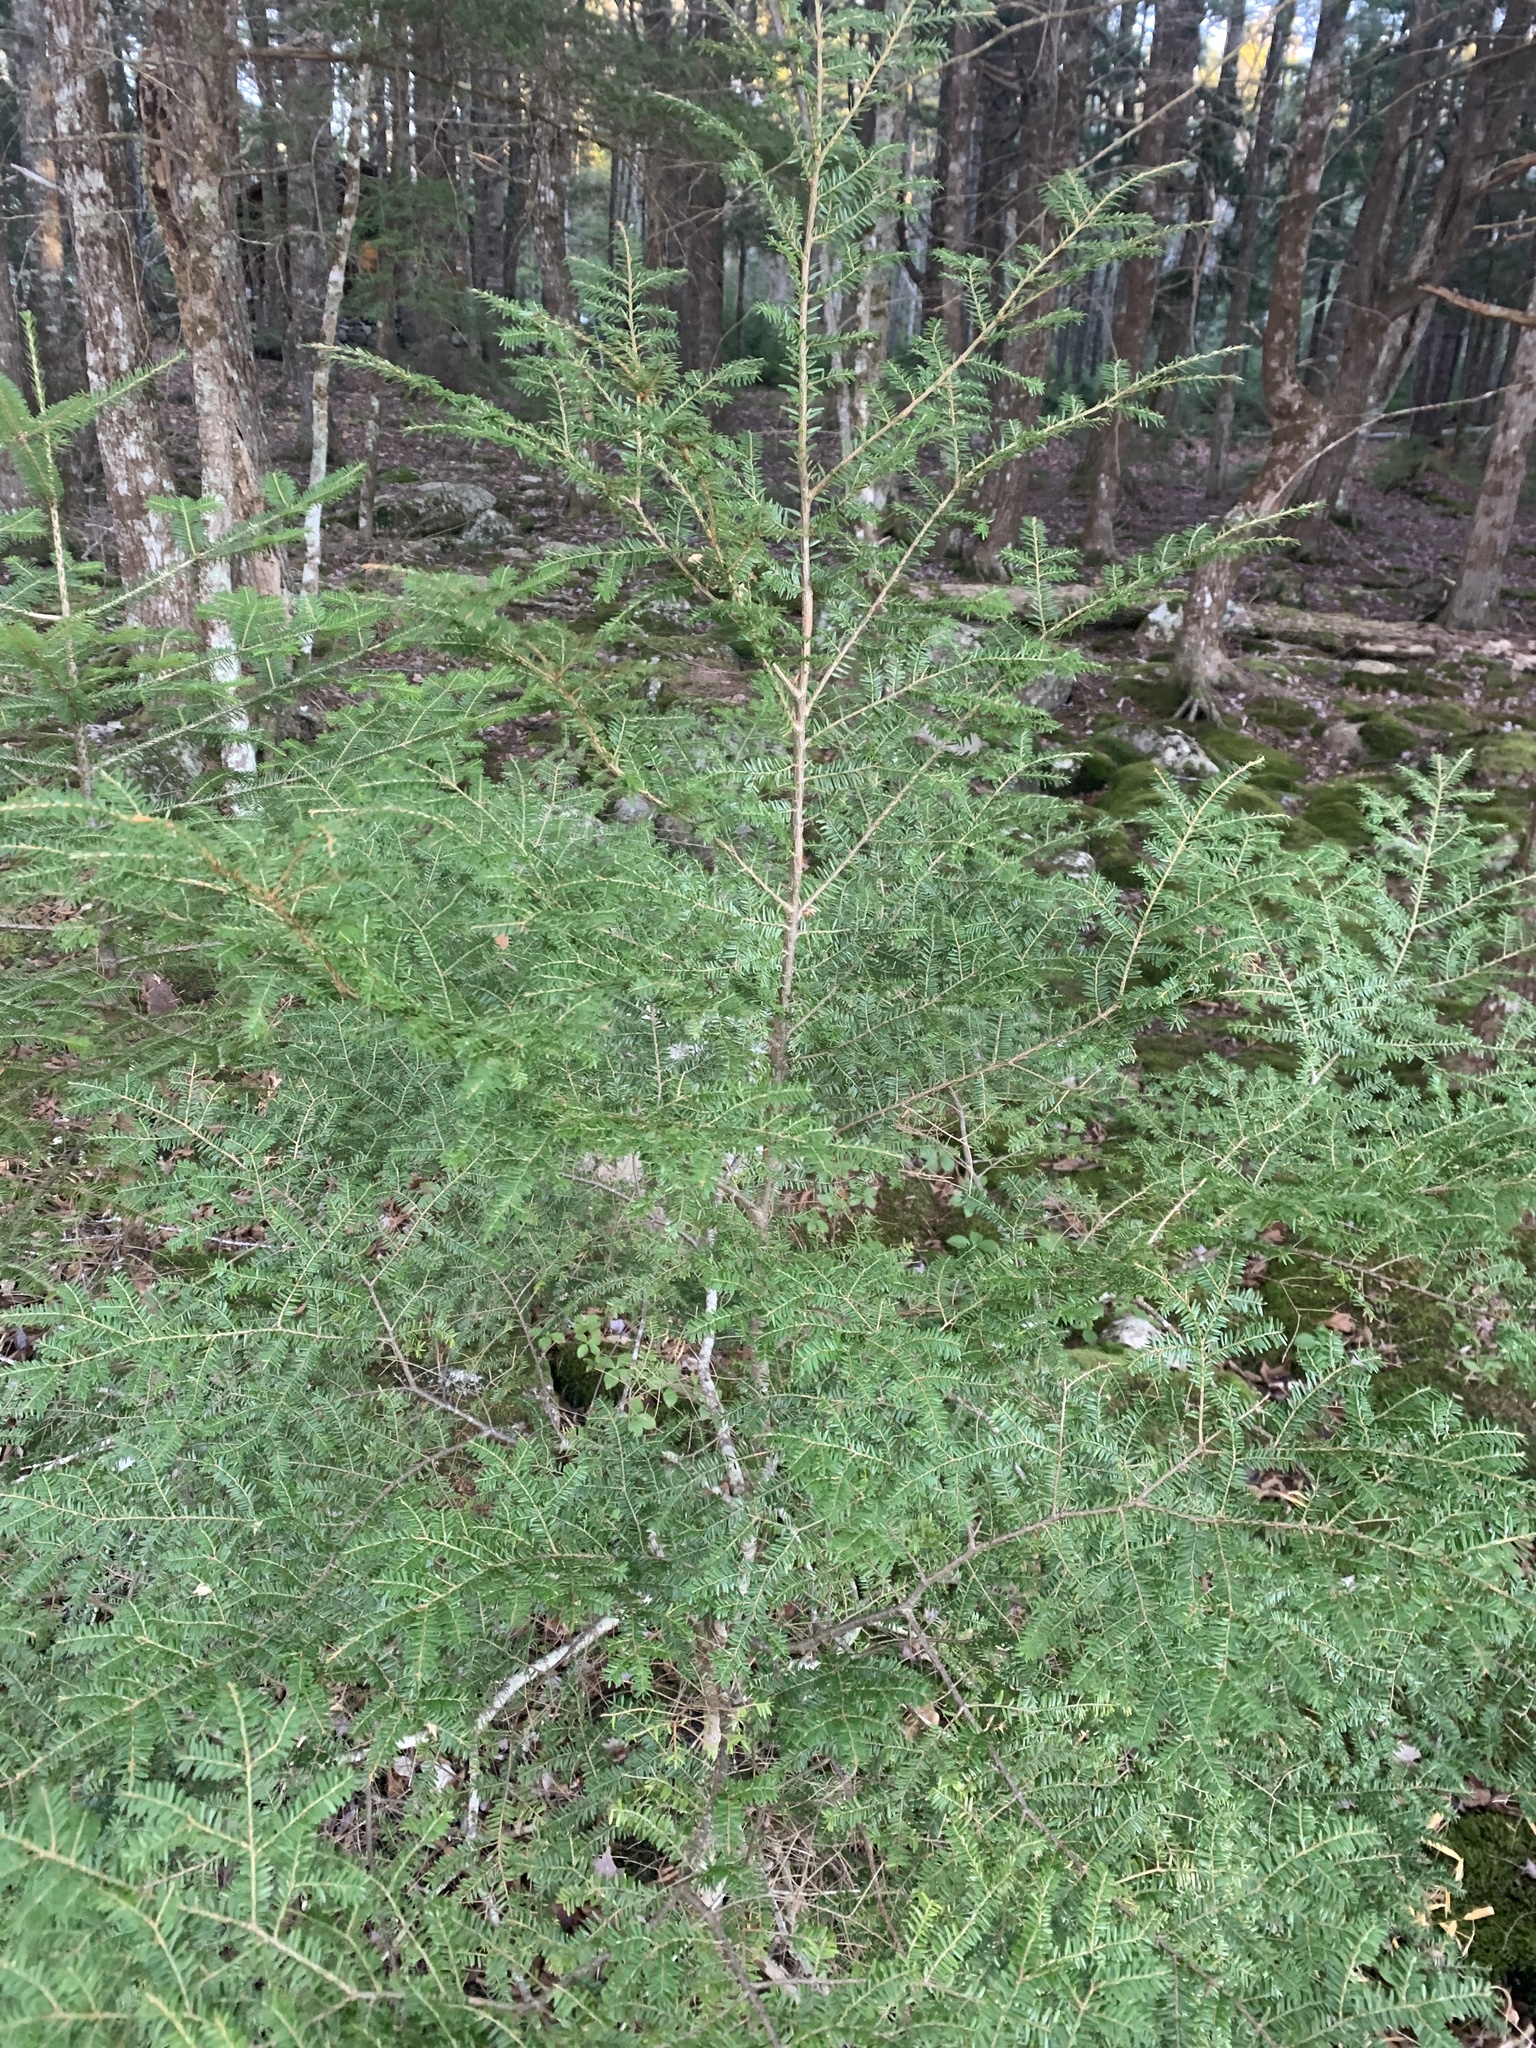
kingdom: Plantae
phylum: Tracheophyta
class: Pinopsida
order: Pinales
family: Pinaceae
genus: Tsuga
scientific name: Tsuga canadensis
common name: Eastern hemlock
